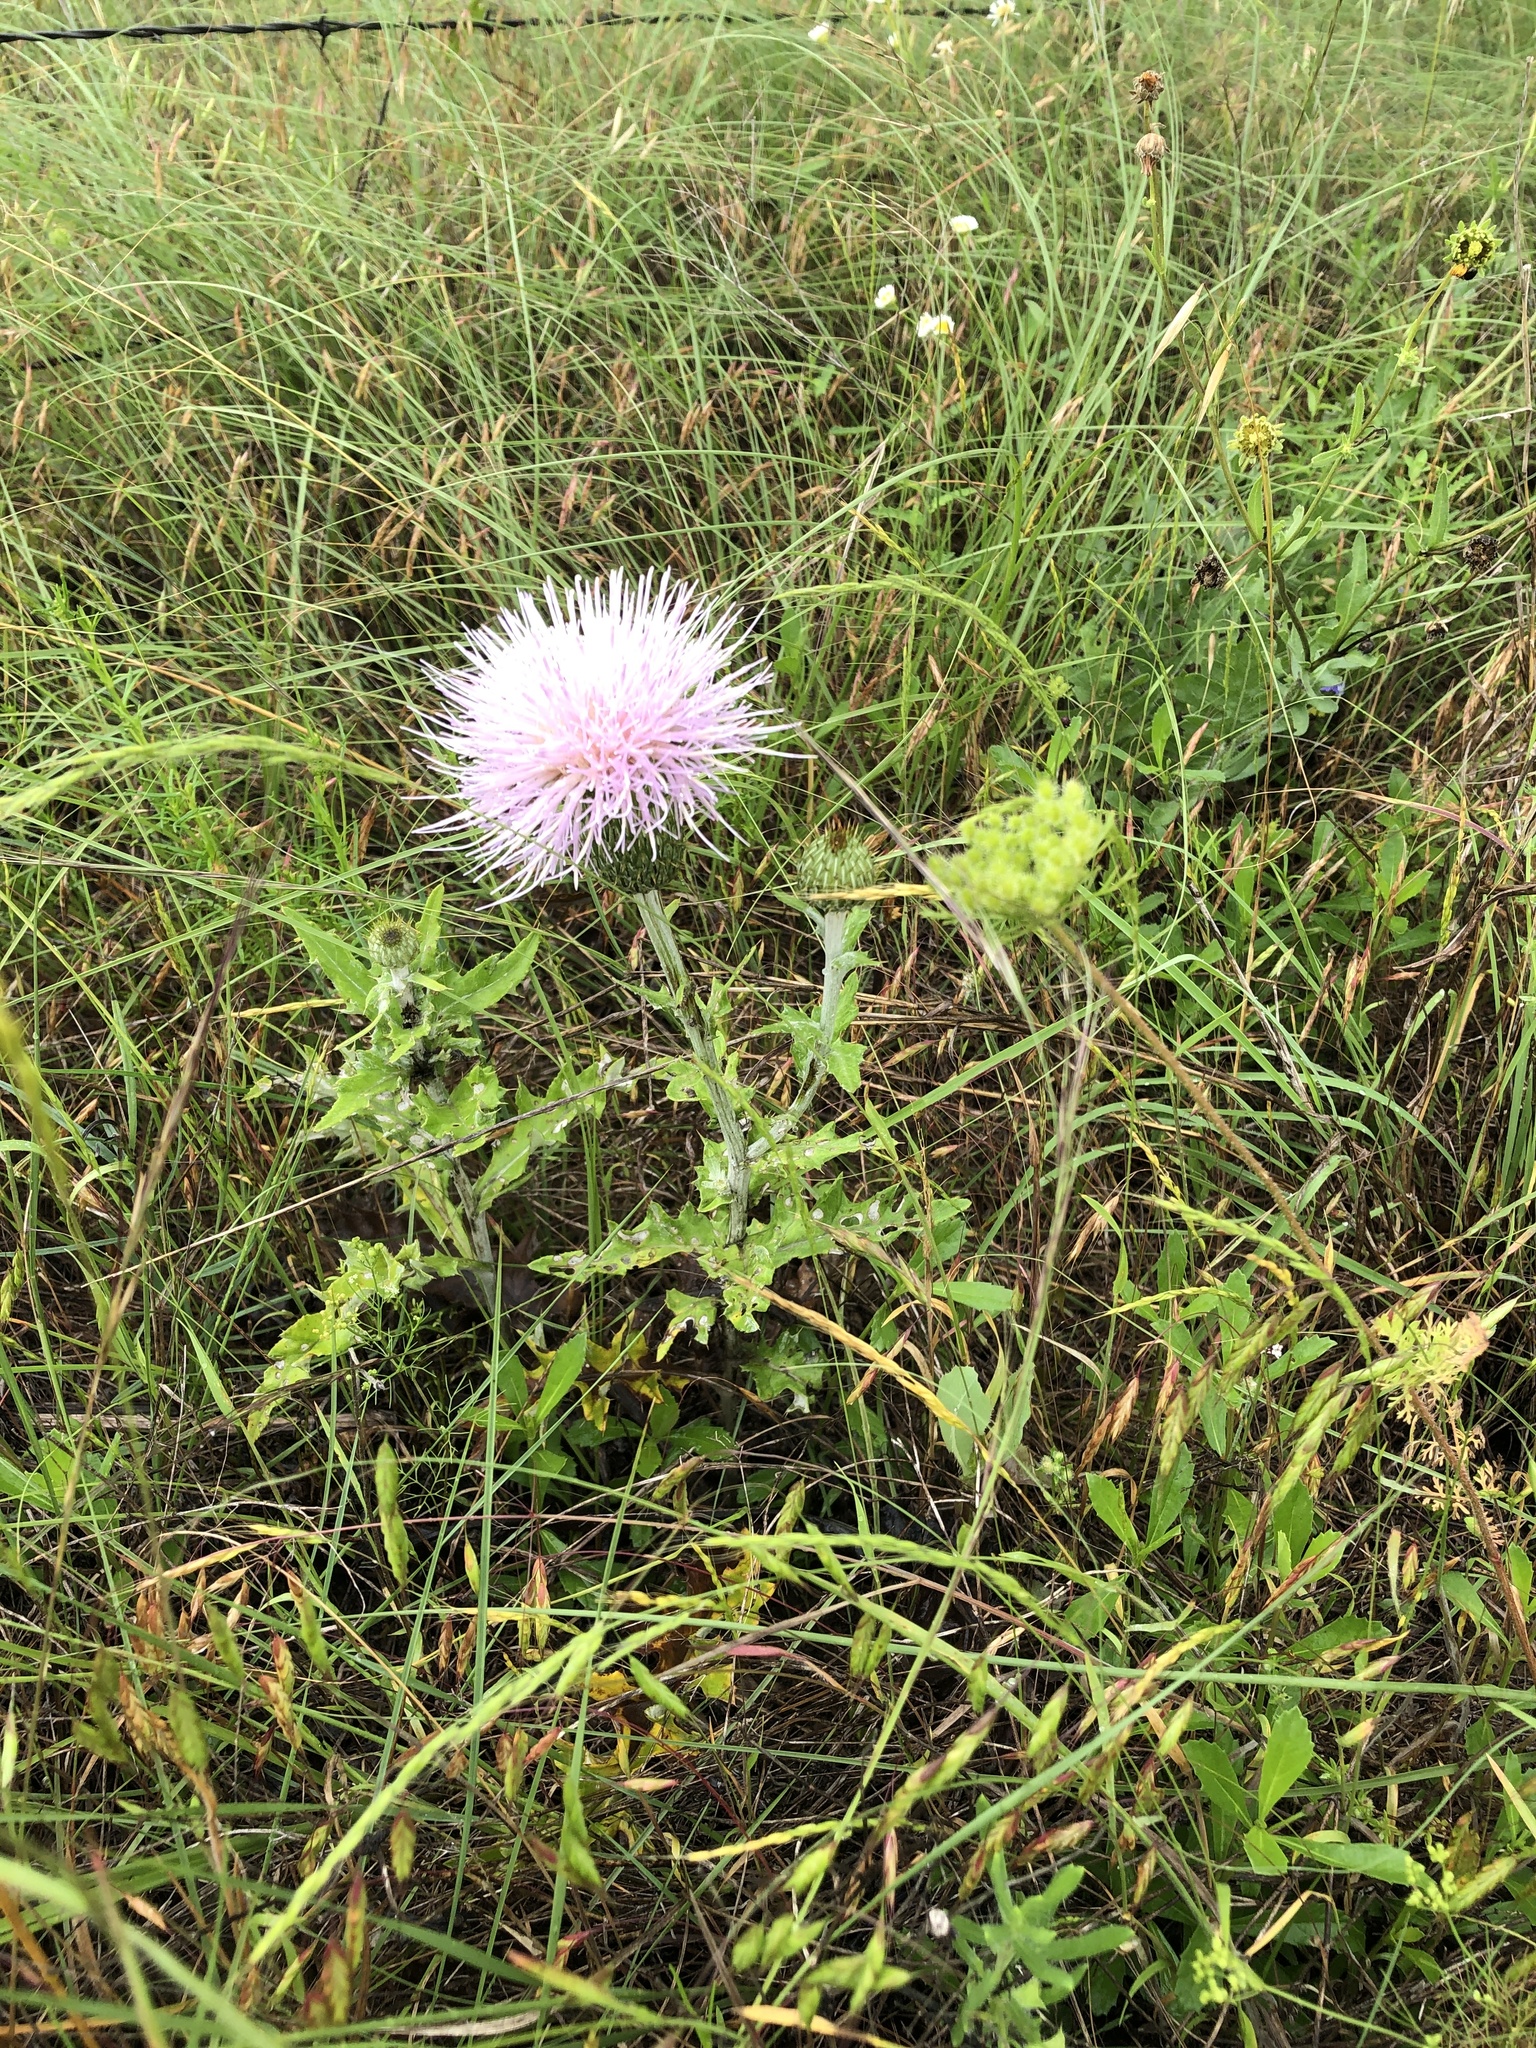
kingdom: Plantae
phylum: Tracheophyta
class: Magnoliopsida
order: Asterales
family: Asteraceae
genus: Cirsium
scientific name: Cirsium undulatum
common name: Pasture thistle
